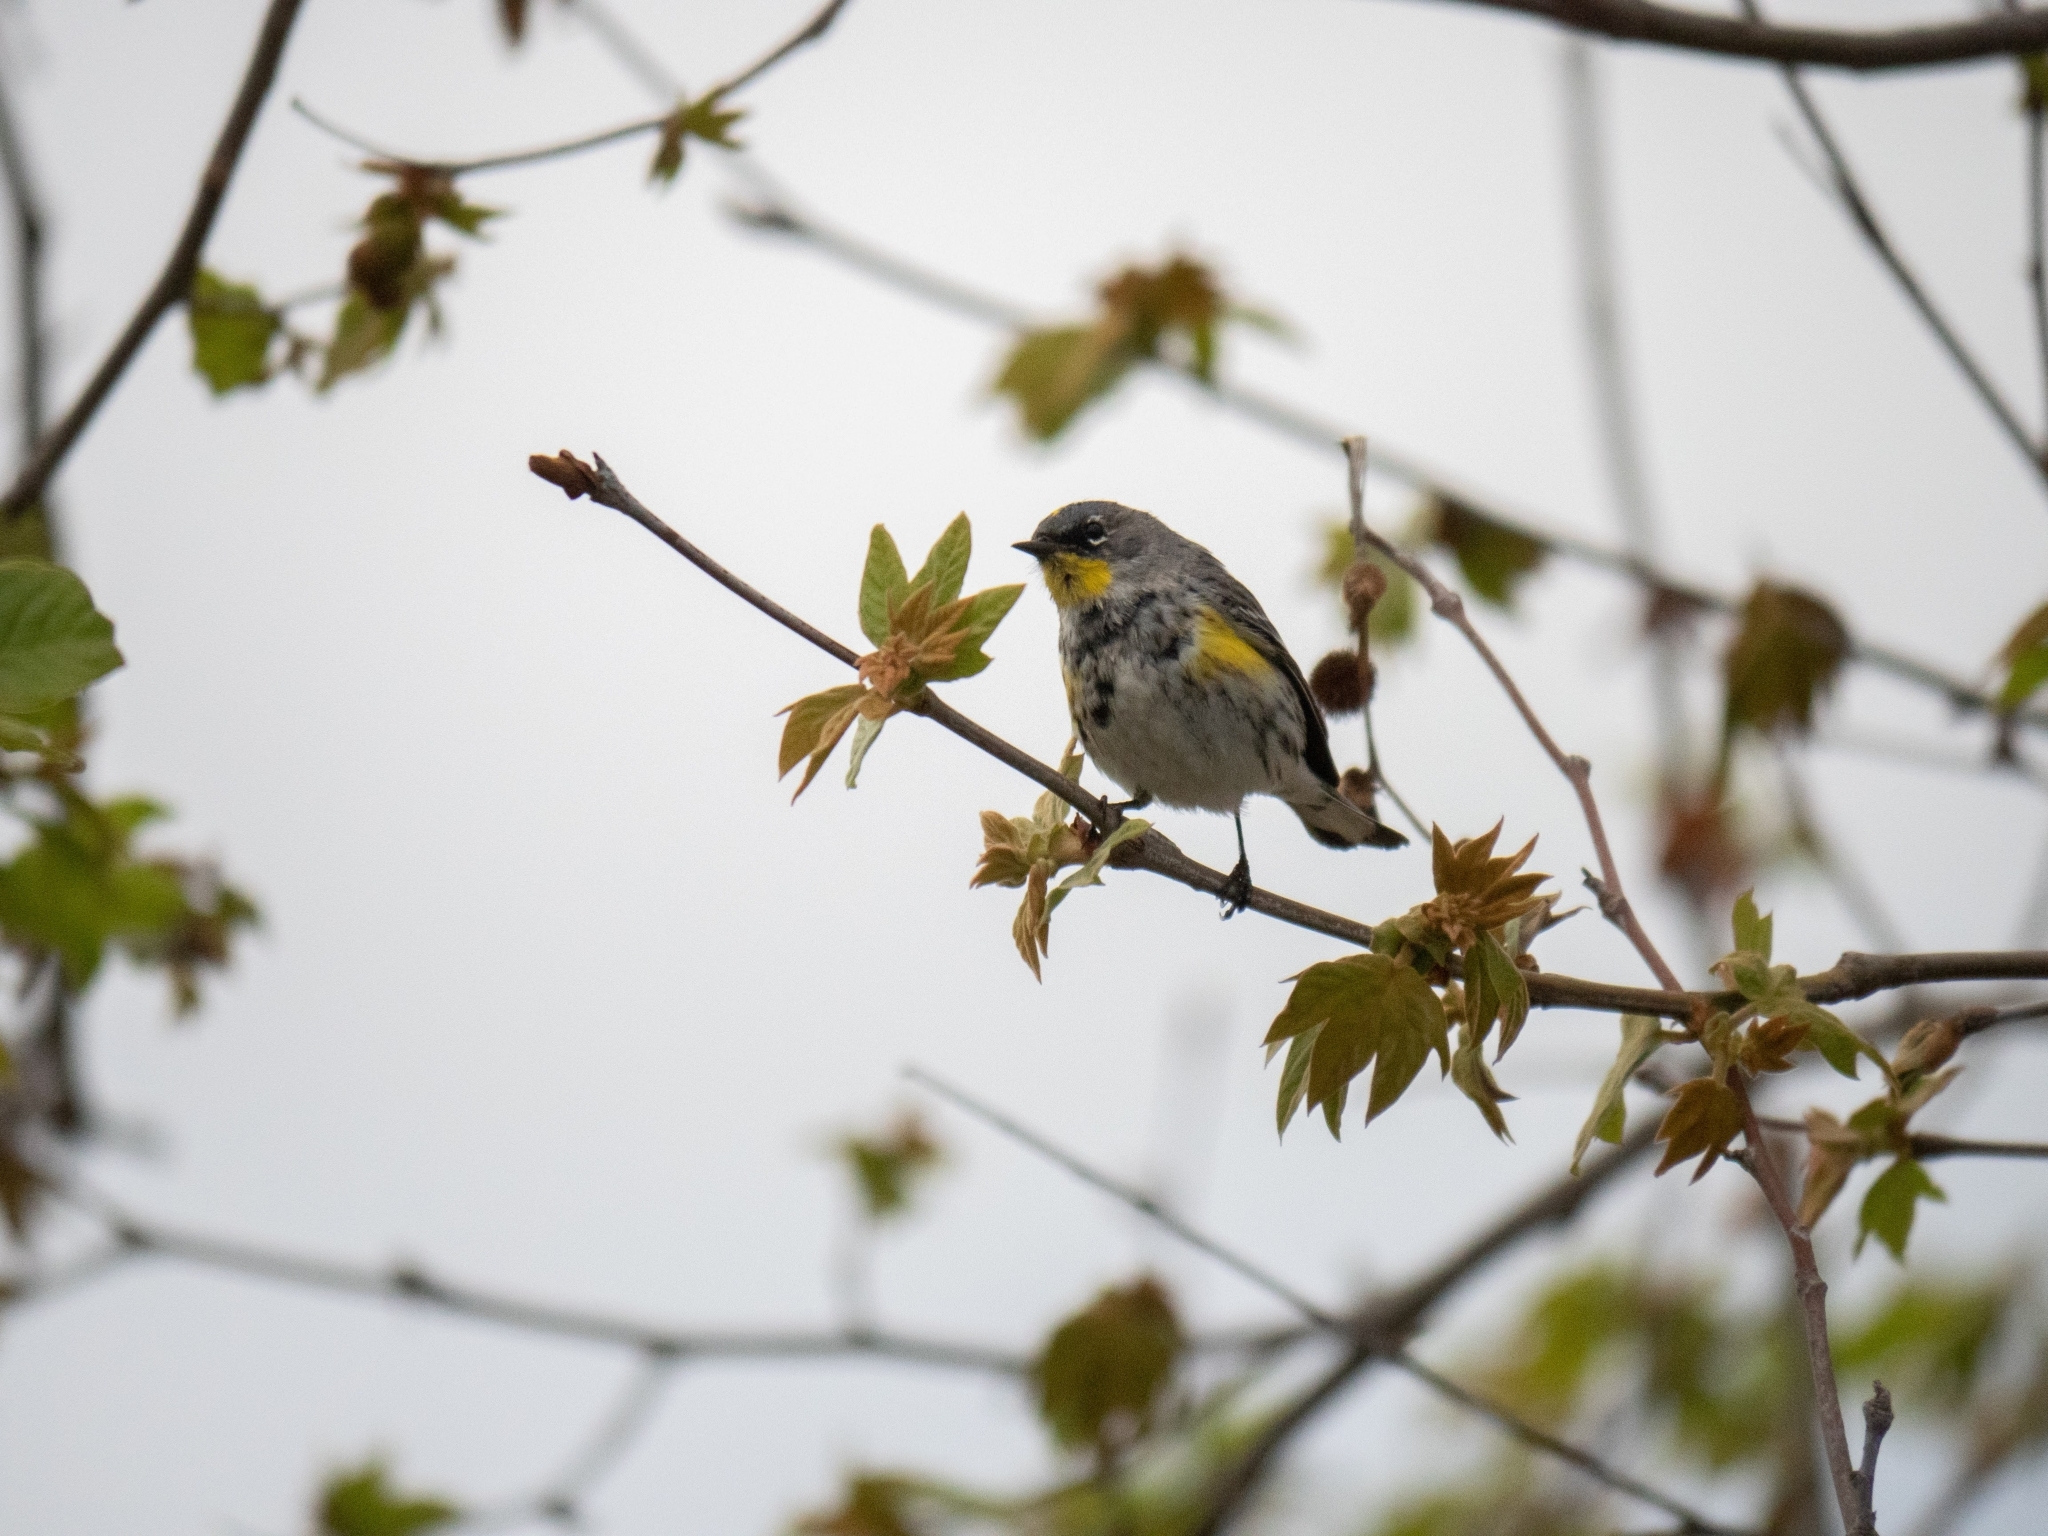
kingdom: Animalia
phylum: Chordata
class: Aves
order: Passeriformes
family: Parulidae
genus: Setophaga
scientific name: Setophaga auduboni
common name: Audubon's warbler
